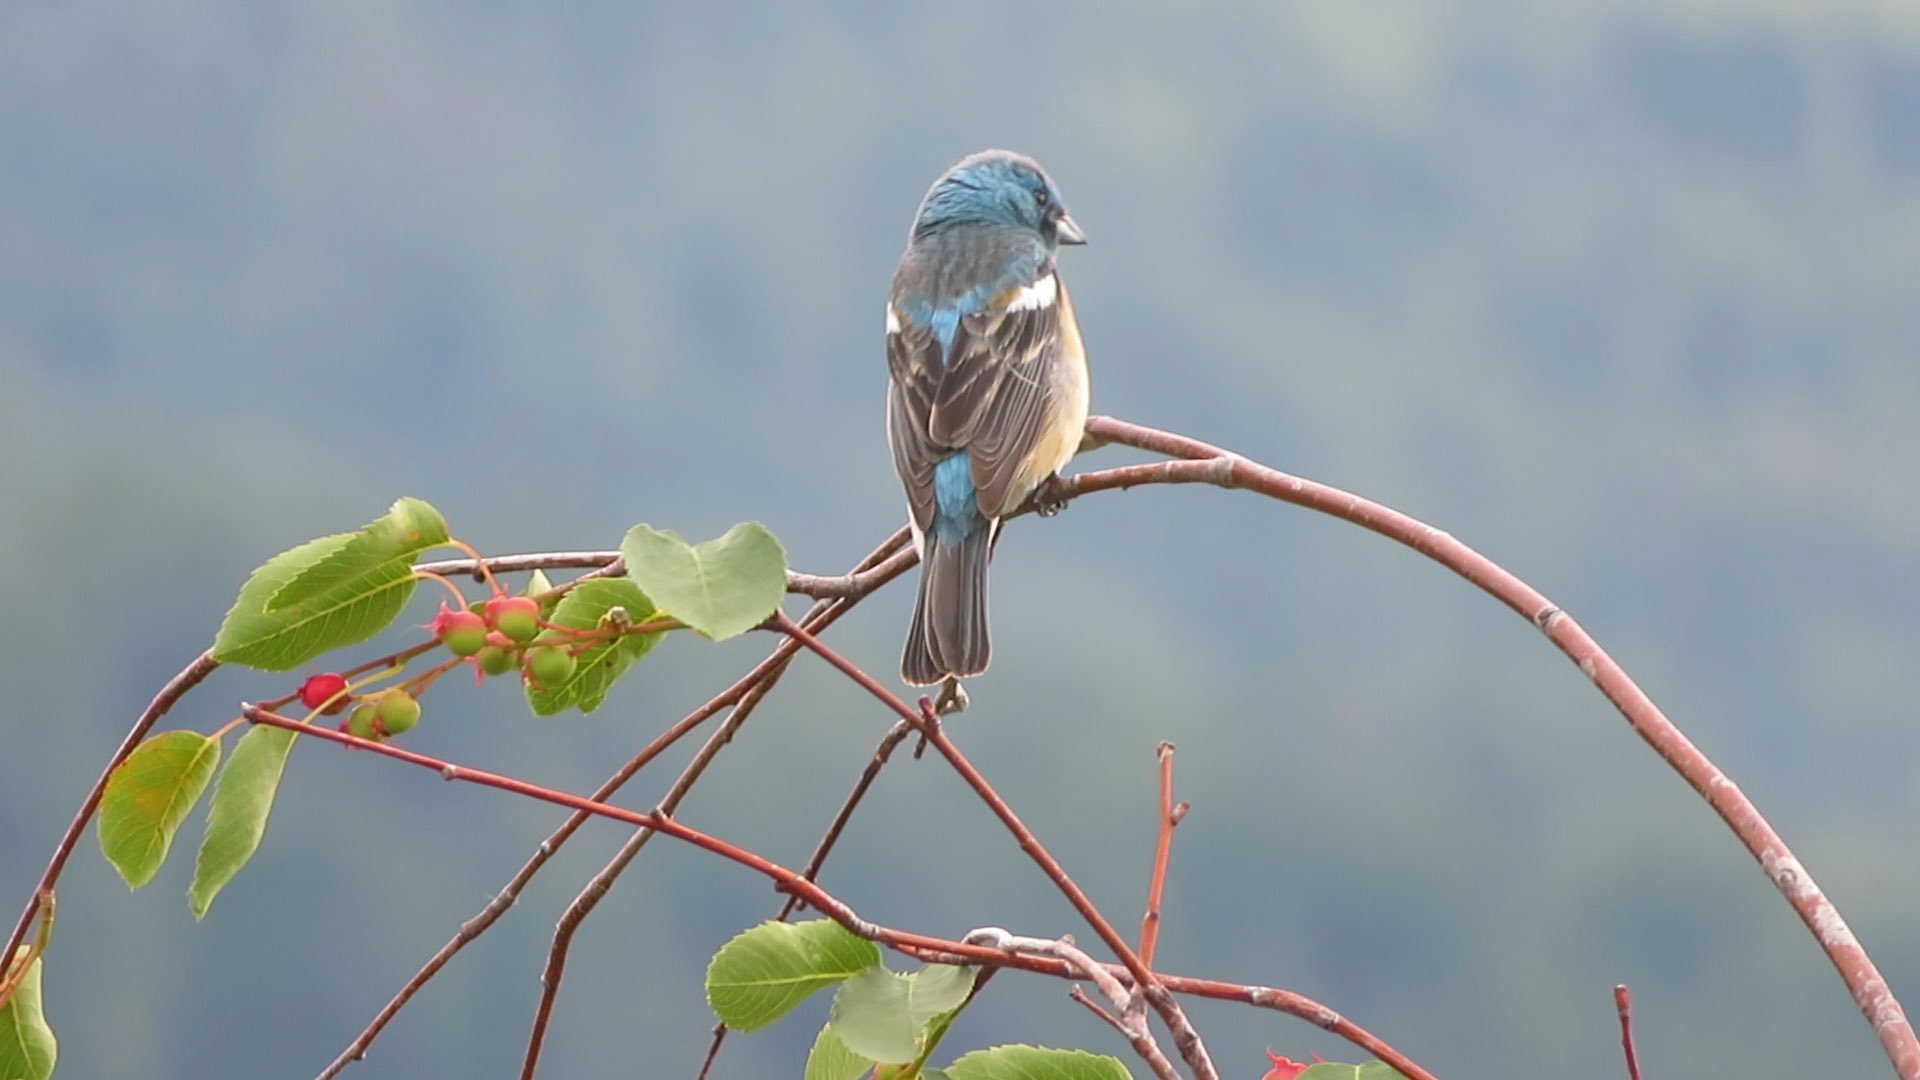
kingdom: Animalia
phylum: Chordata
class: Aves
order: Passeriformes
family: Cardinalidae
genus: Passerina
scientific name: Passerina amoena
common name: Lazuli bunting
